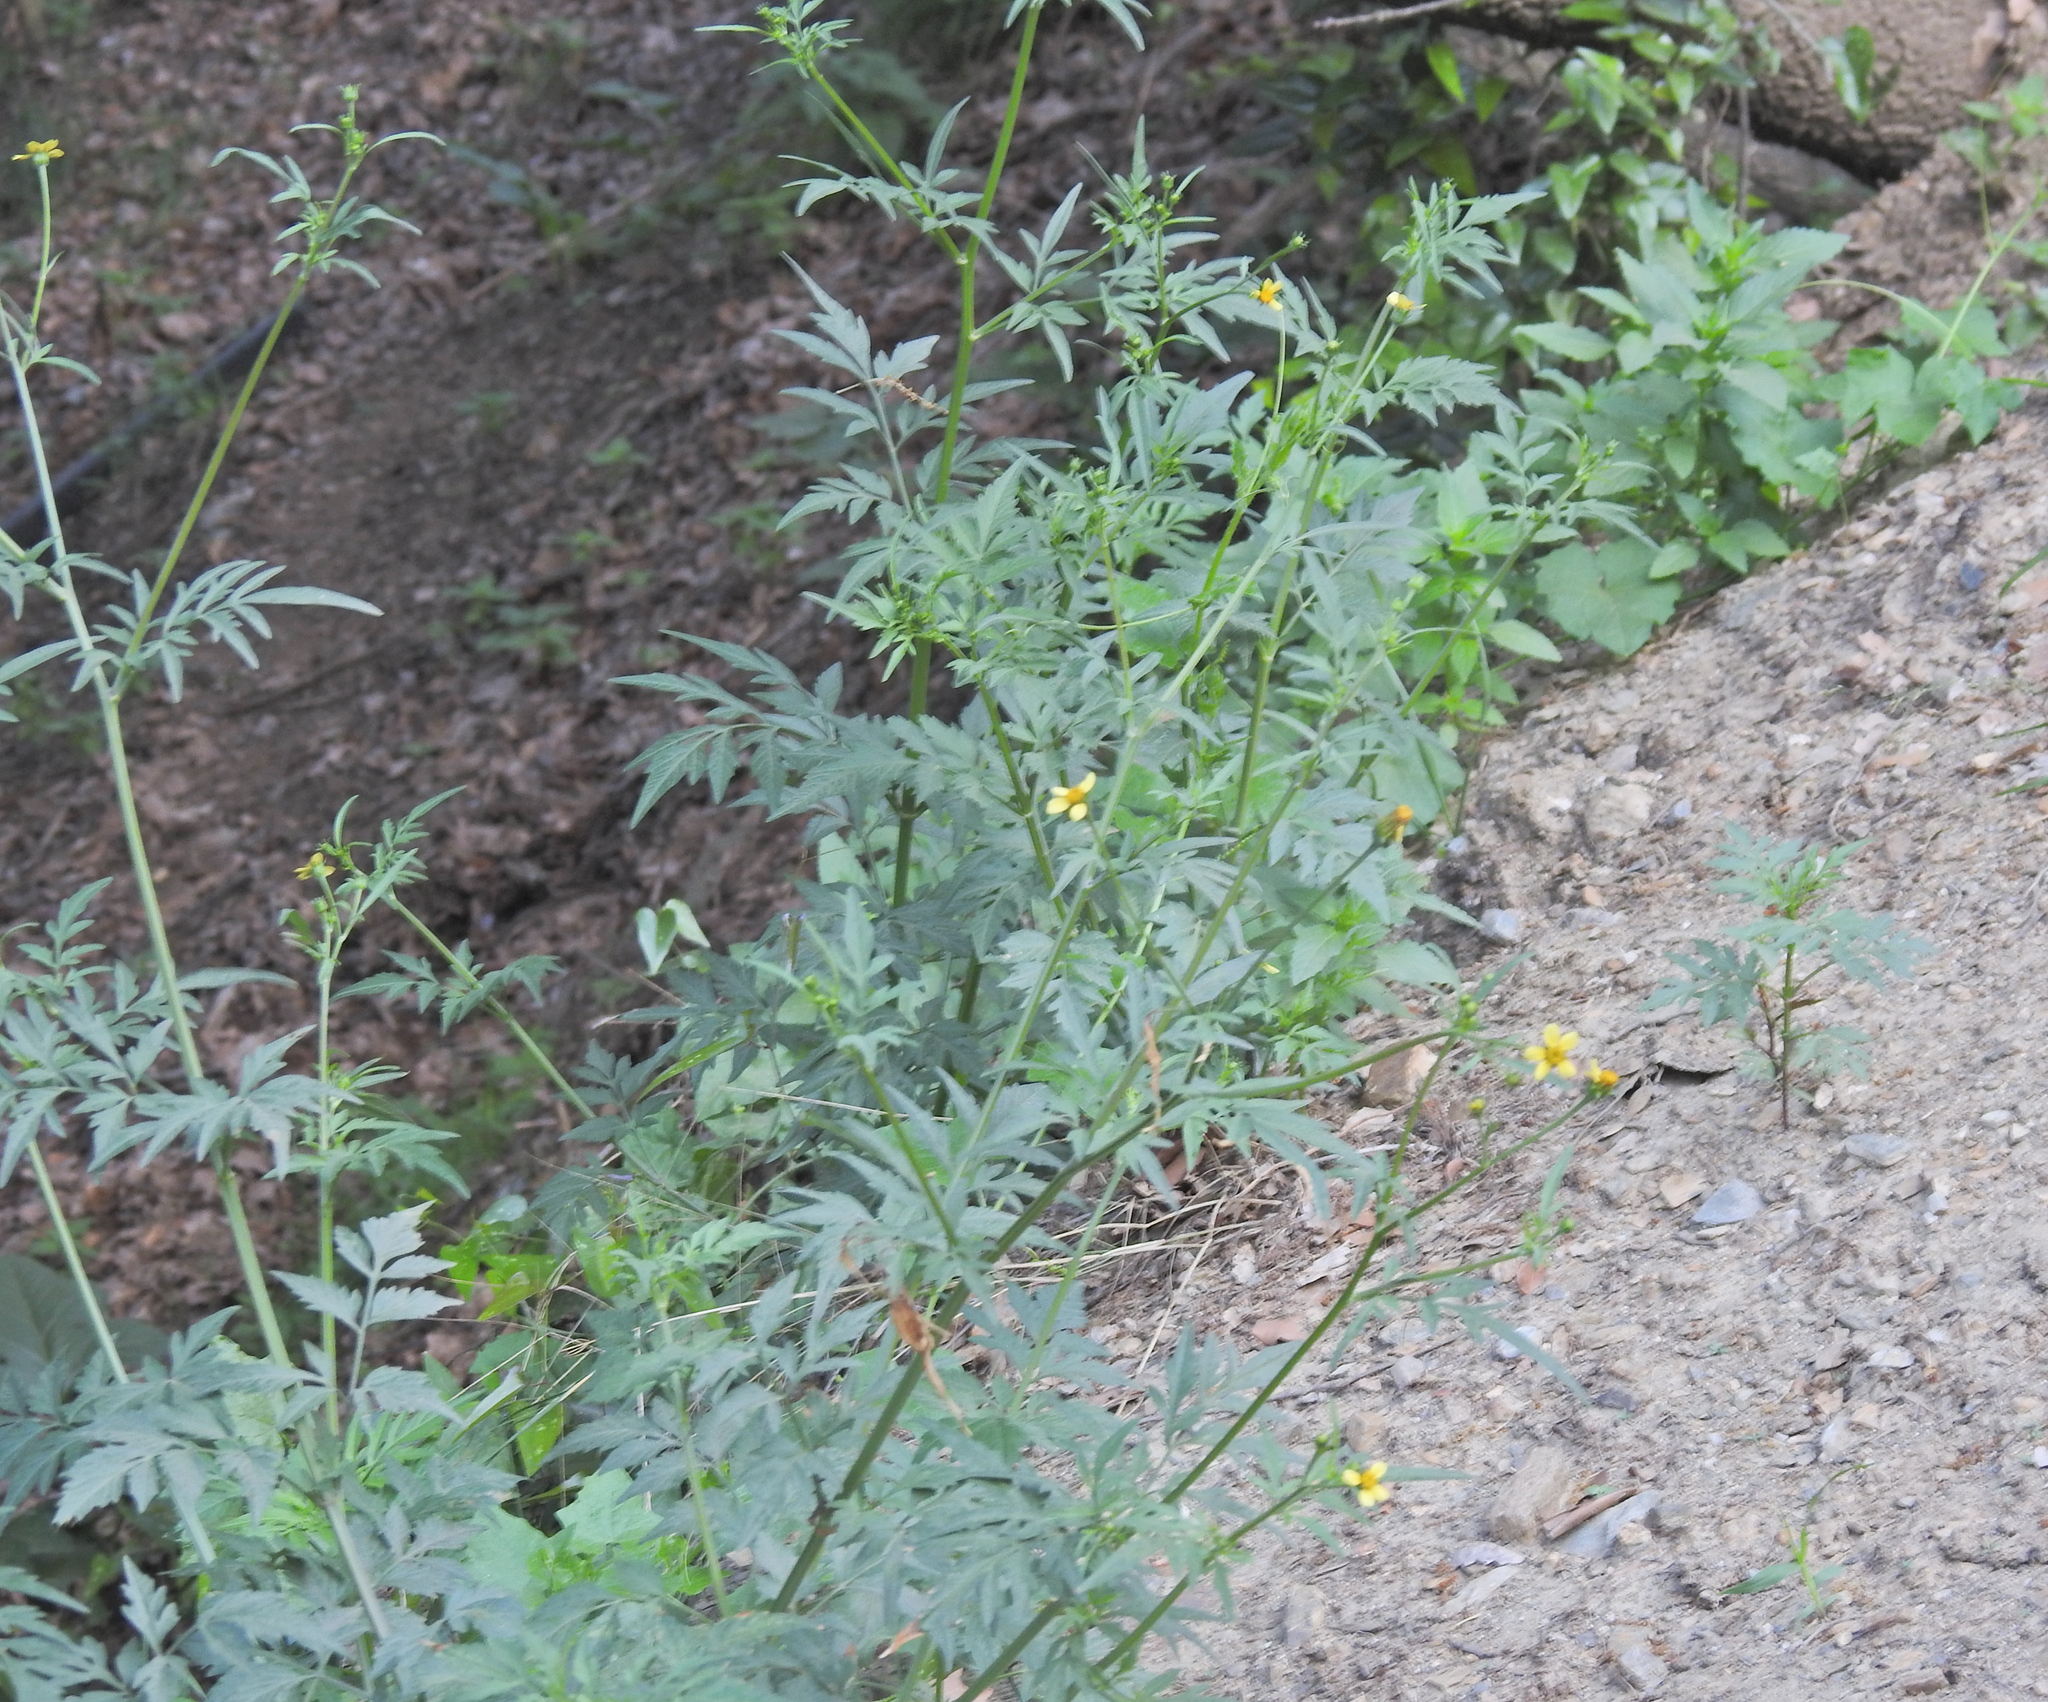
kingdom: Plantae
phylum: Tracheophyta
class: Magnoliopsida
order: Asterales
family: Asteraceae
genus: Bidens
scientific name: Bidens subalternans
